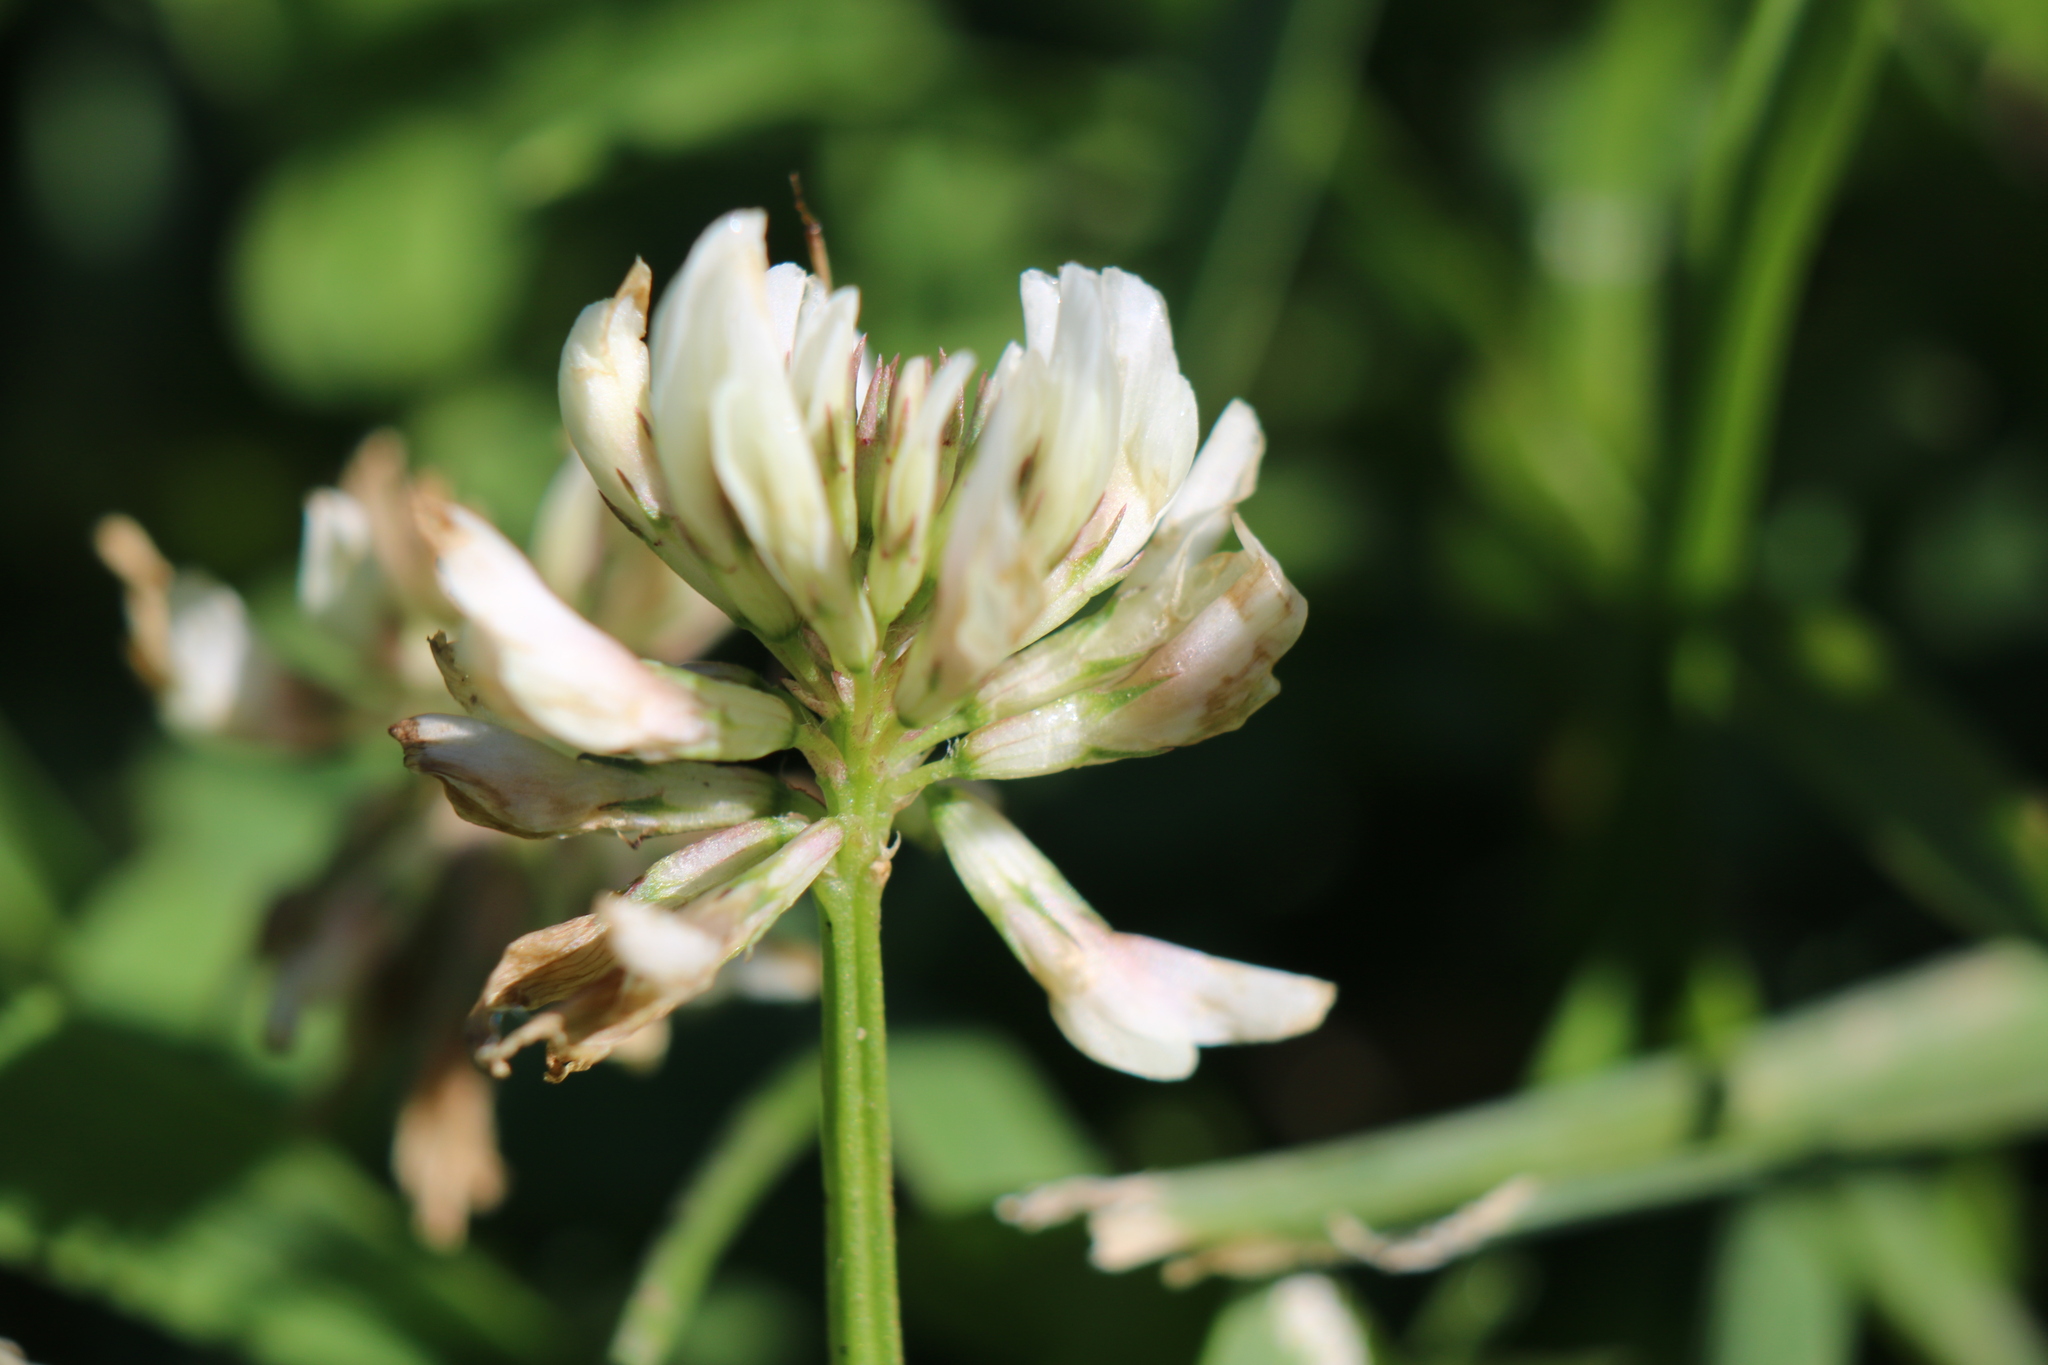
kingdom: Plantae
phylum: Tracheophyta
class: Magnoliopsida
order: Fabales
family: Fabaceae
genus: Trifolium
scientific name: Trifolium repens
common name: White clover
